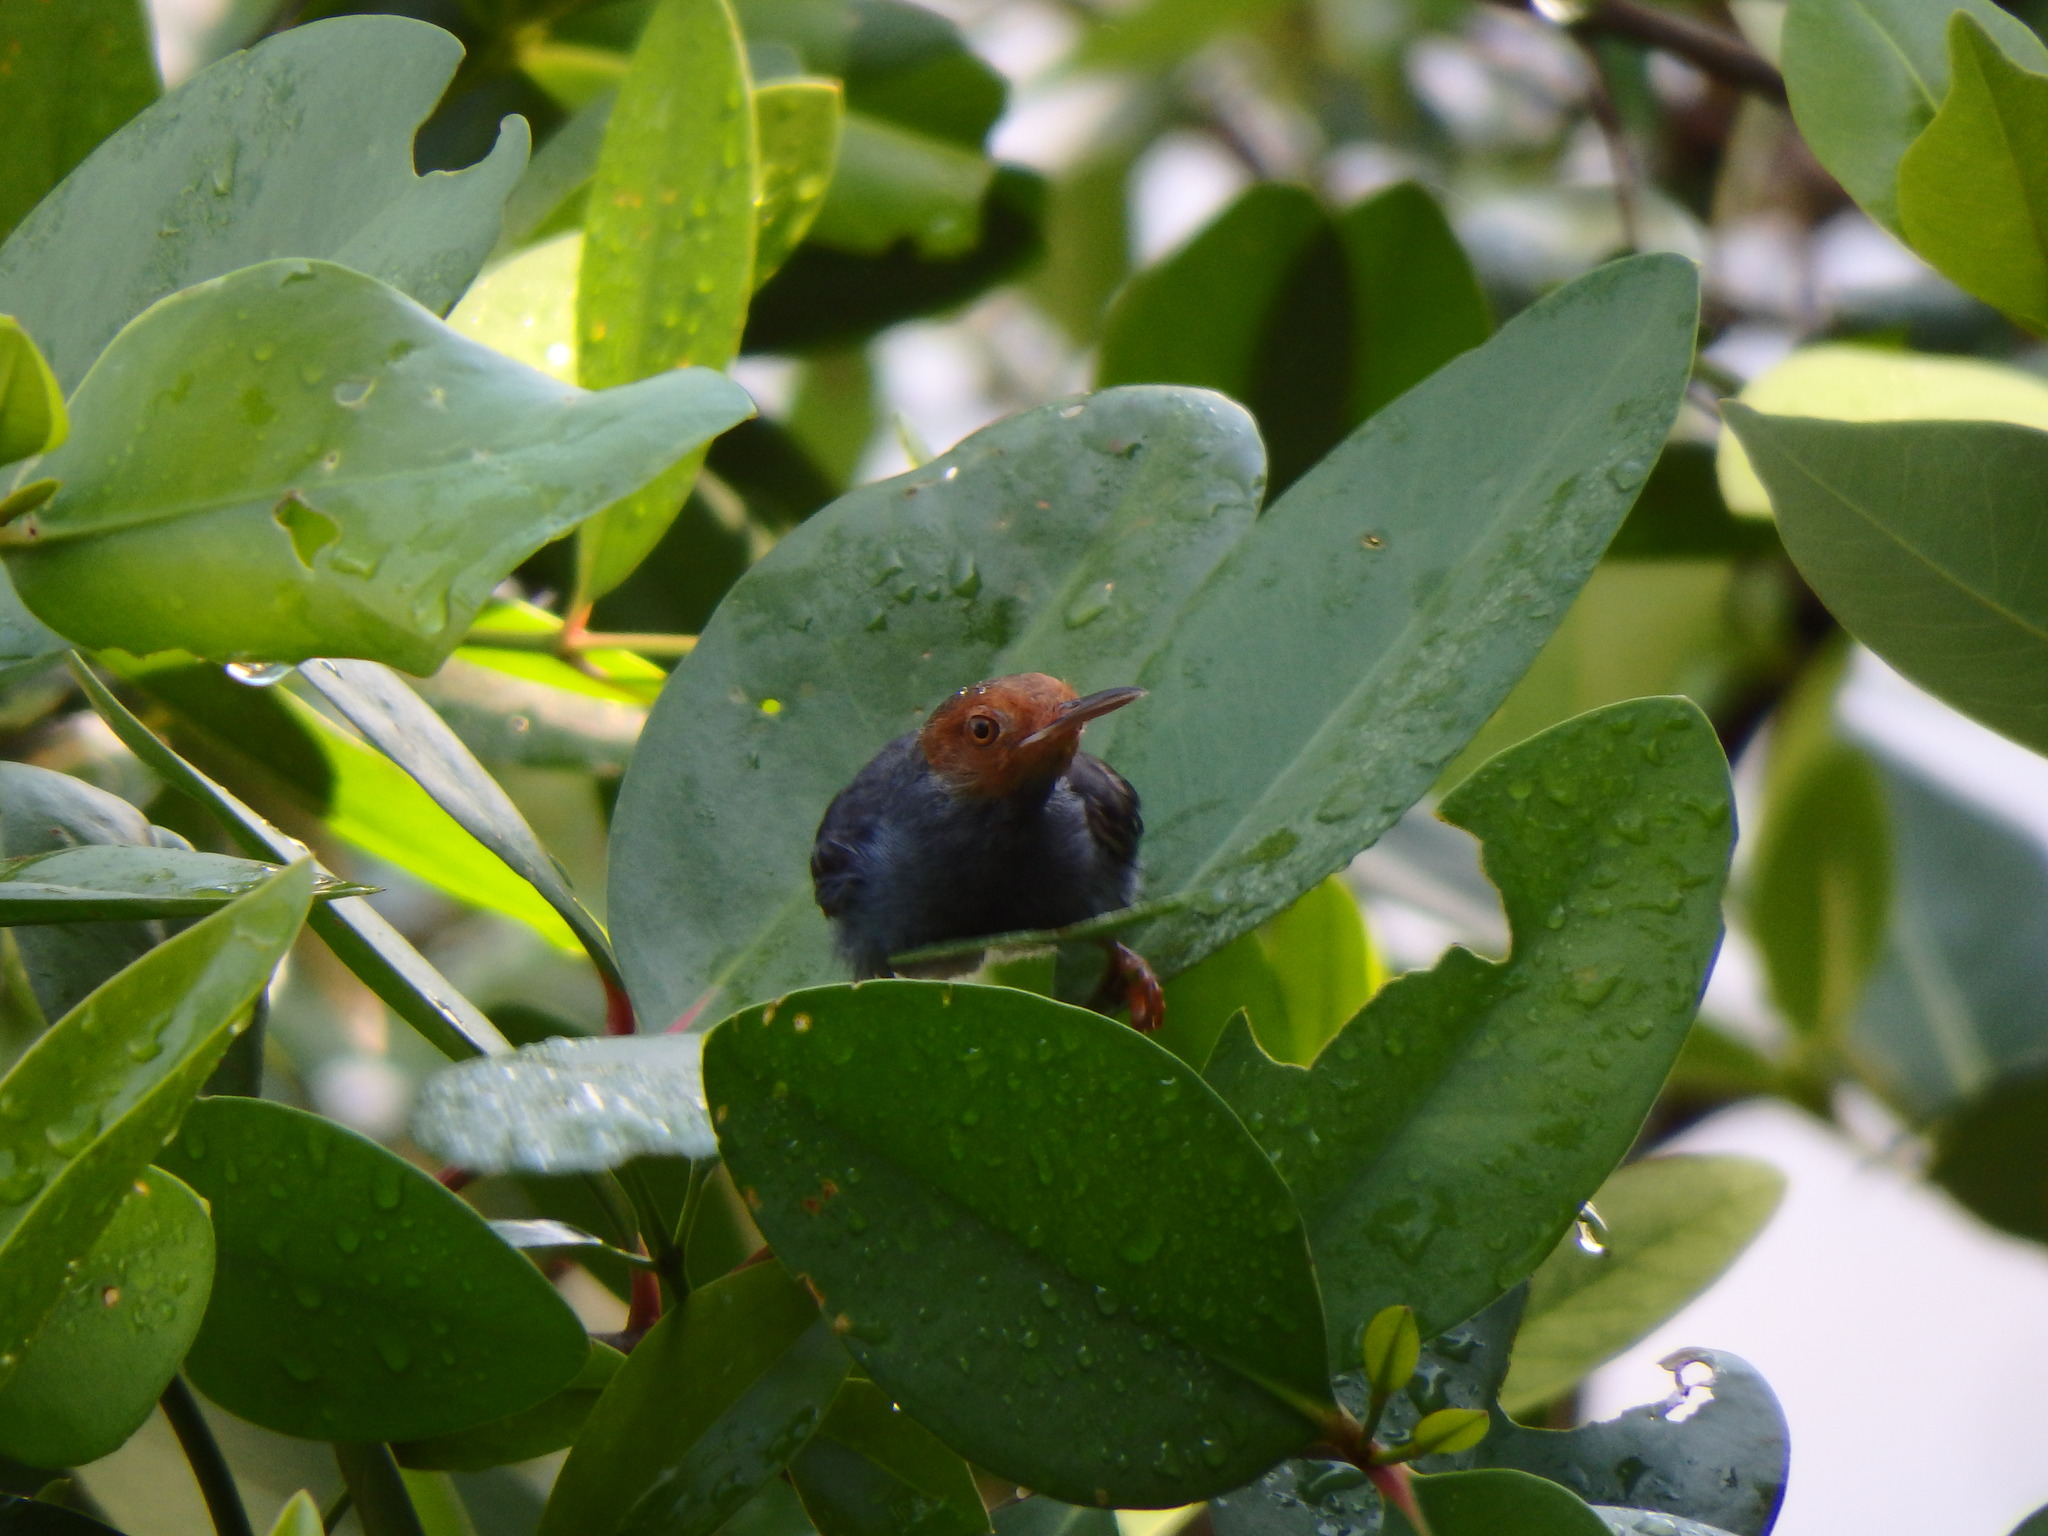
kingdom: Animalia
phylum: Chordata
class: Aves
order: Passeriformes
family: Cisticolidae
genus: Orthotomus
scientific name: Orthotomus ruficeps
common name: Ashy tailorbird
